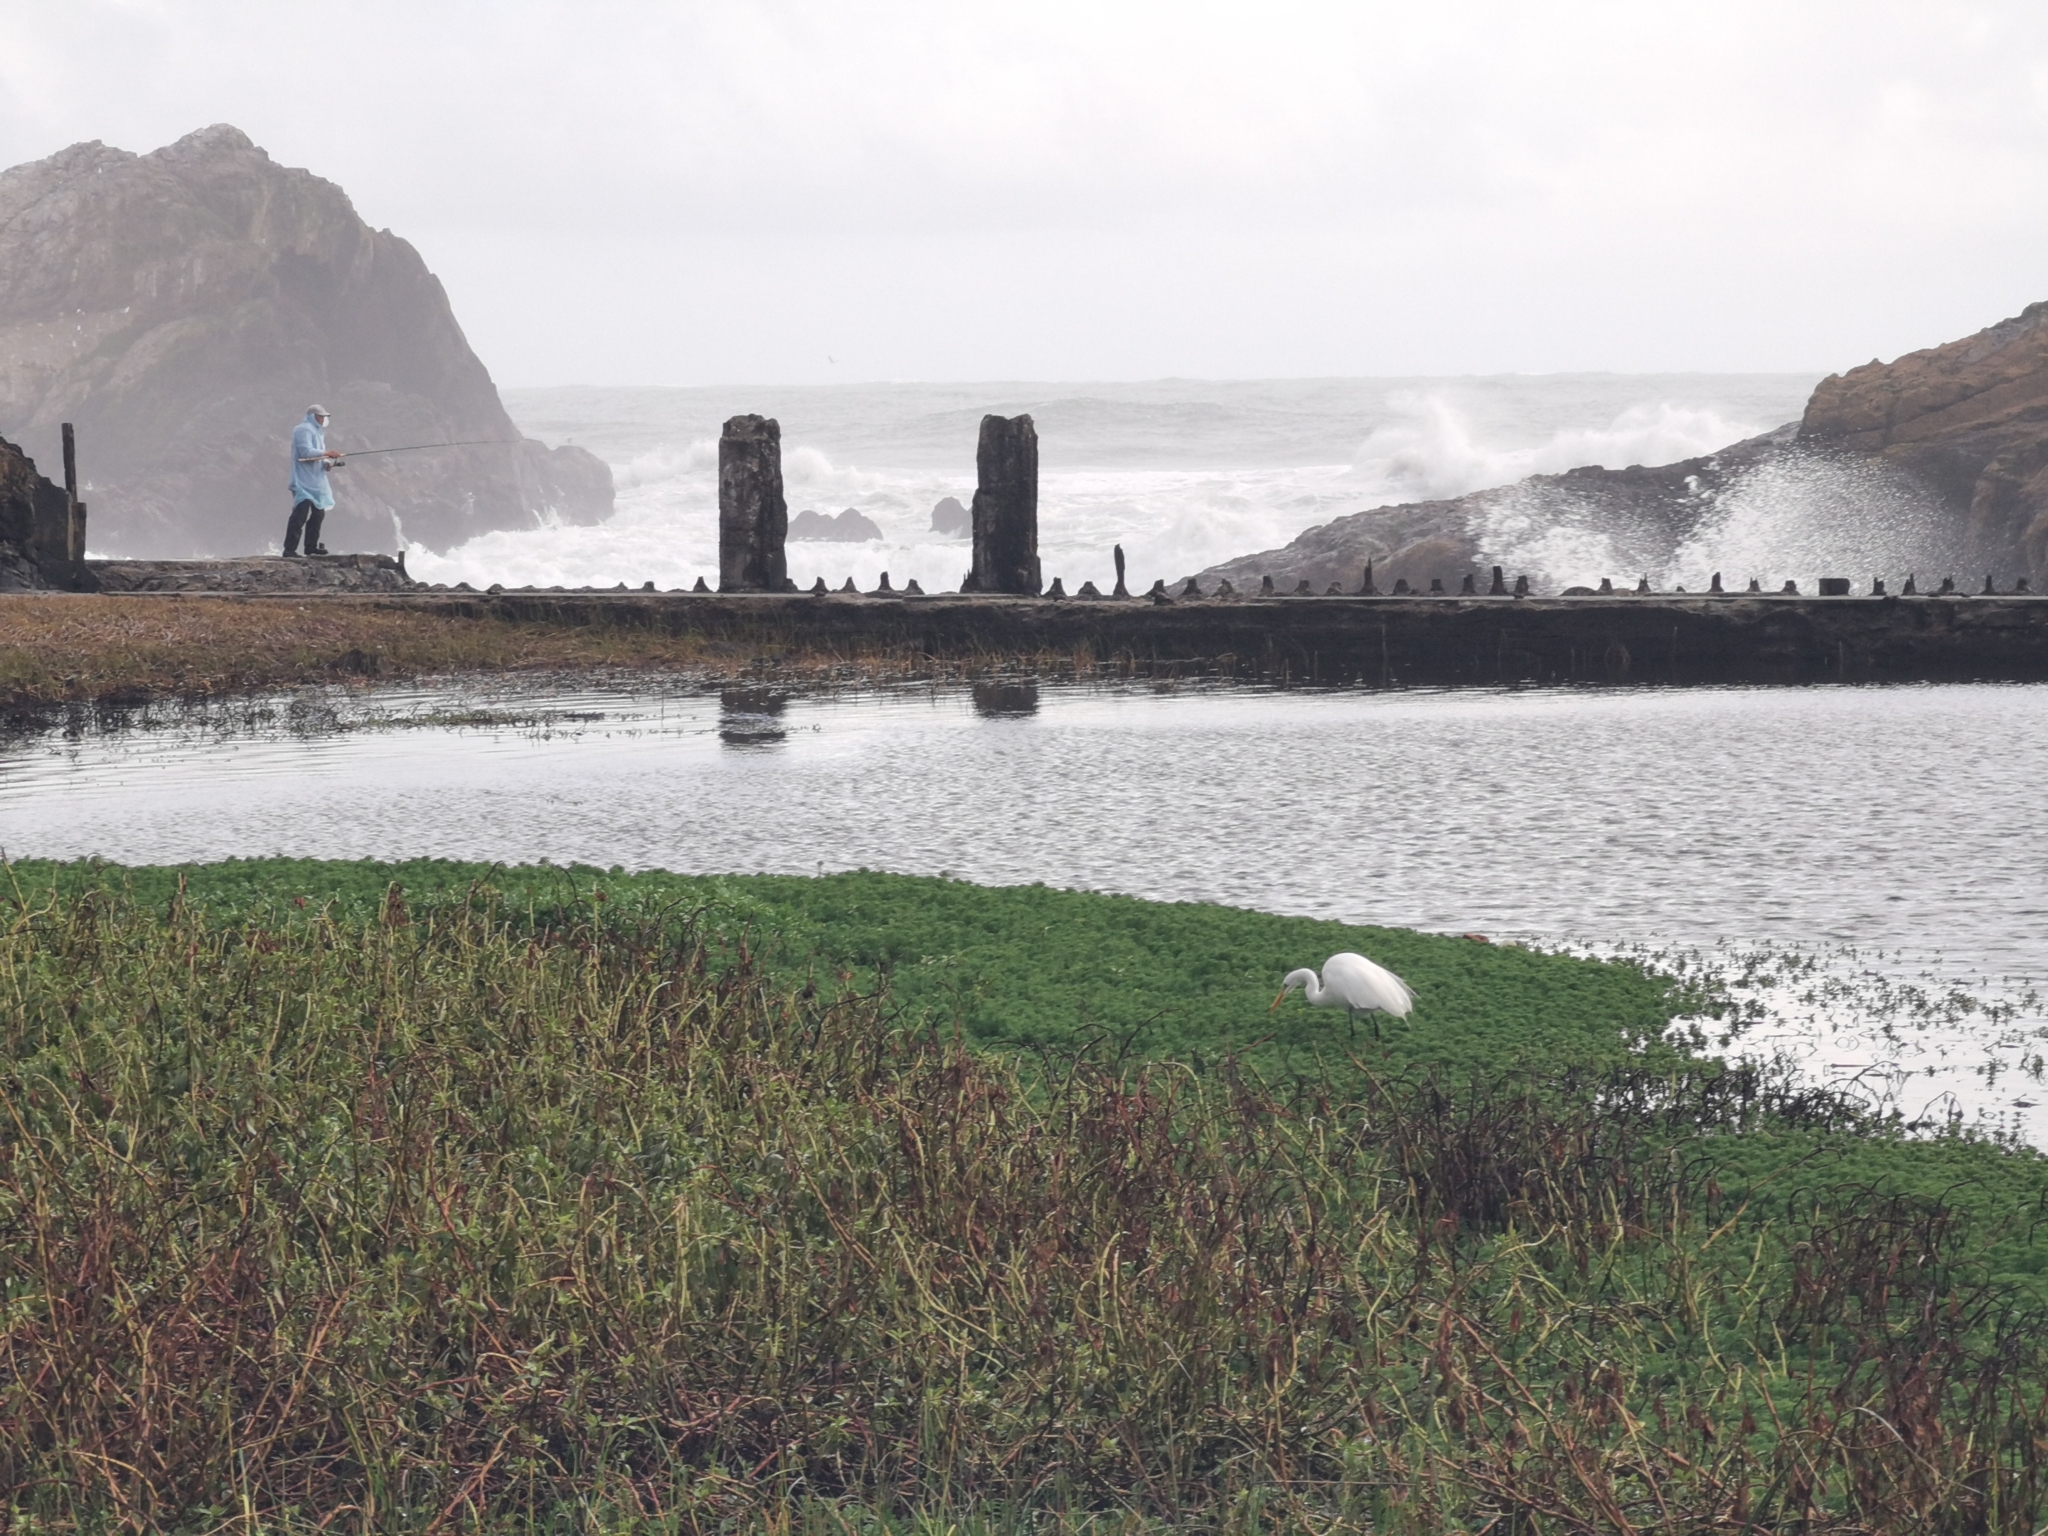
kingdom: Animalia
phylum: Chordata
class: Aves
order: Pelecaniformes
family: Ardeidae
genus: Ardea
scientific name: Ardea alba
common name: Great egret
